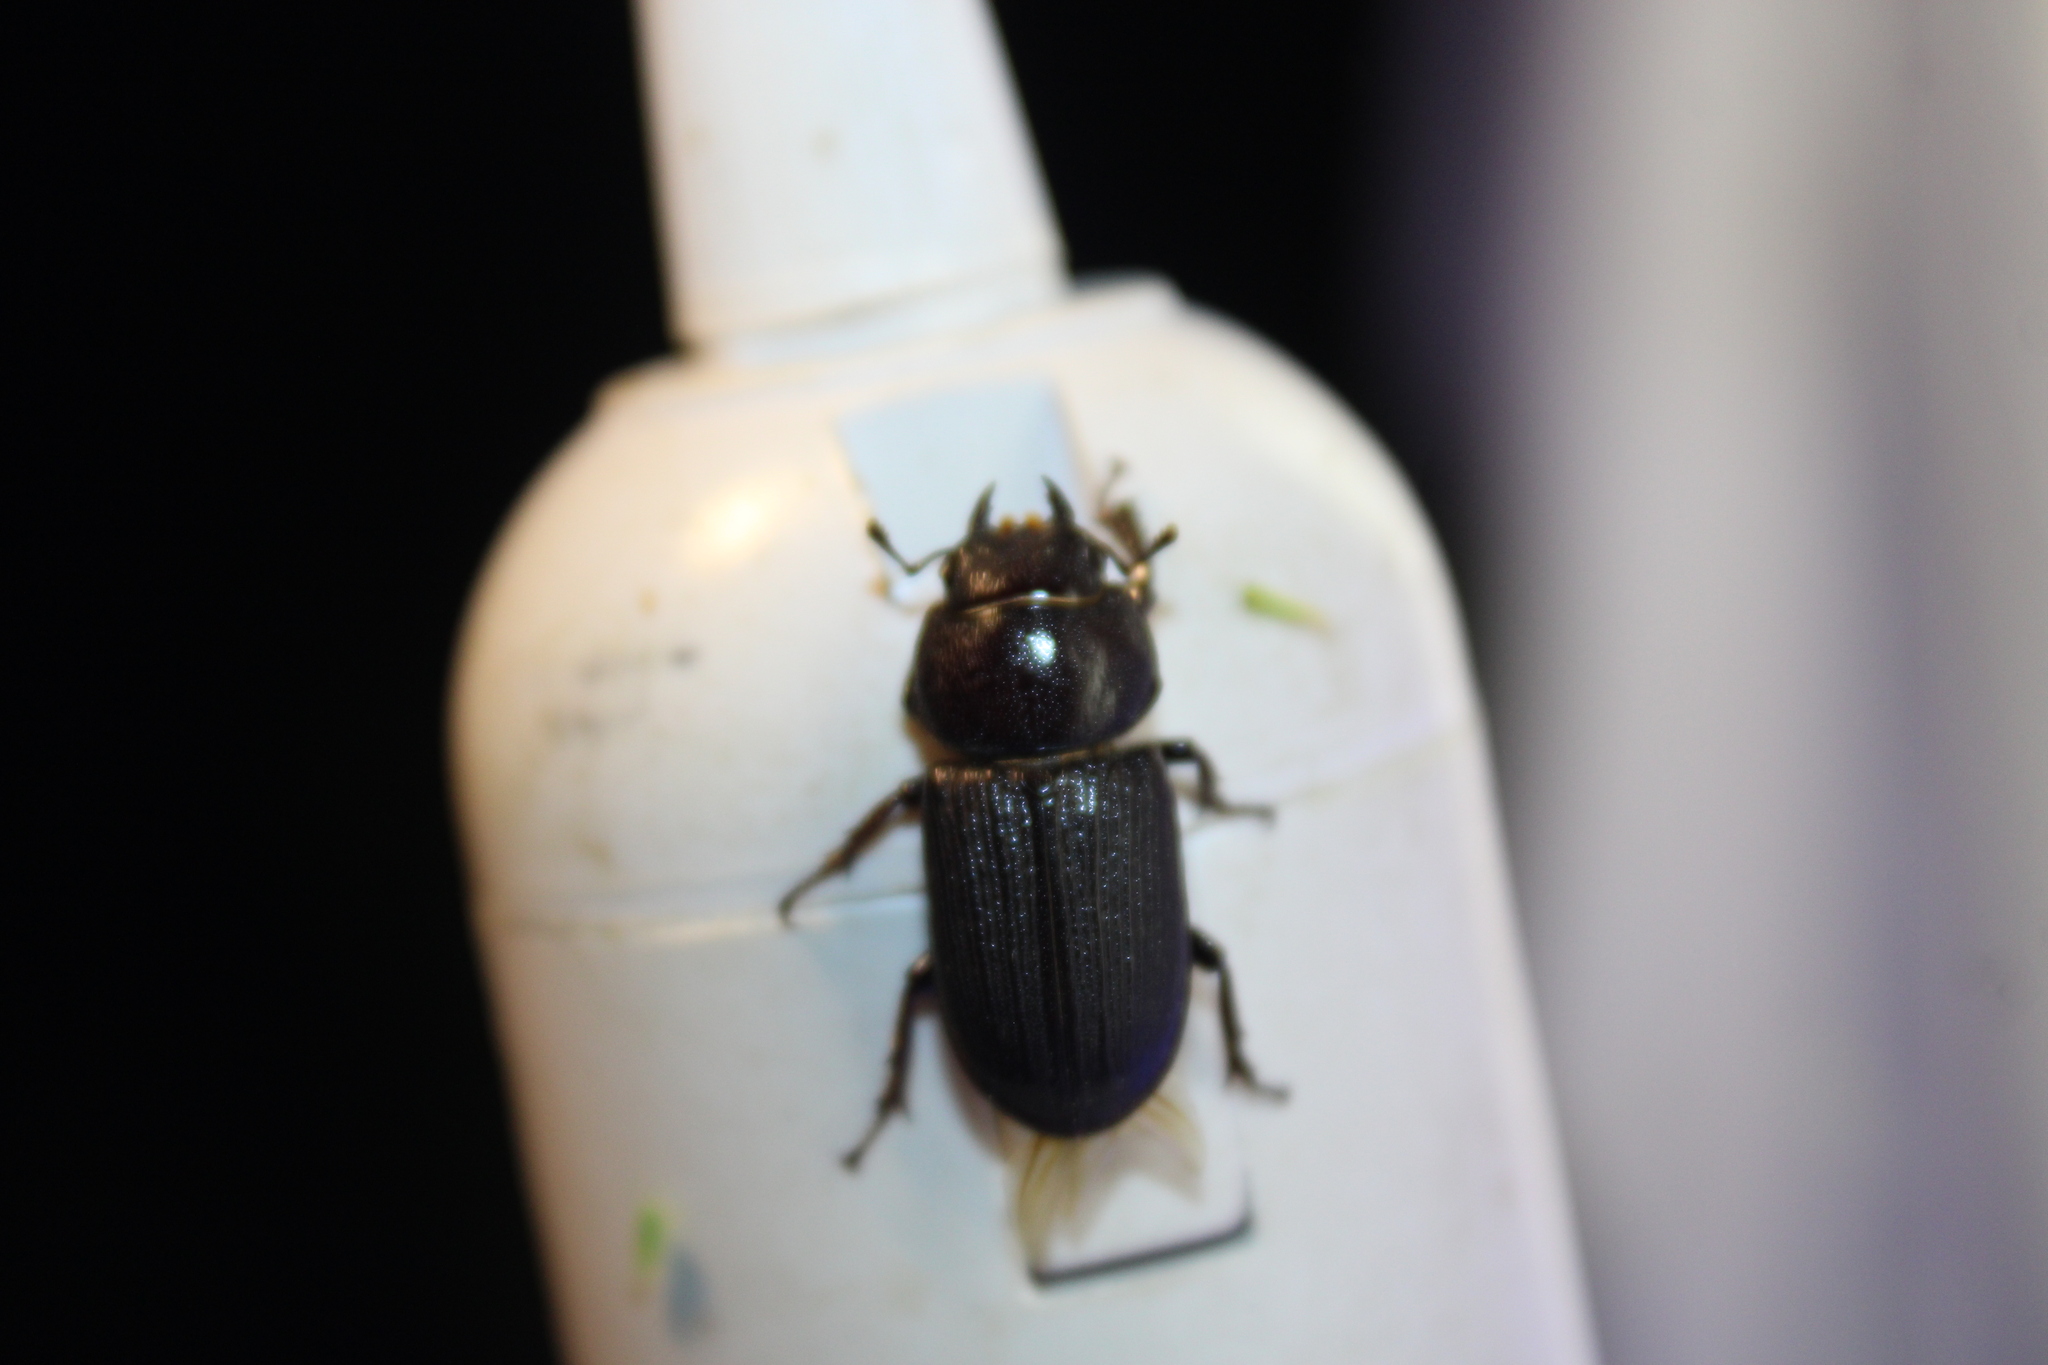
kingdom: Animalia
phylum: Arthropoda
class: Insecta
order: Coleoptera
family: Lucanidae
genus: Dorcus
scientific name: Dorcus parallelus
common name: Antelope beetle
